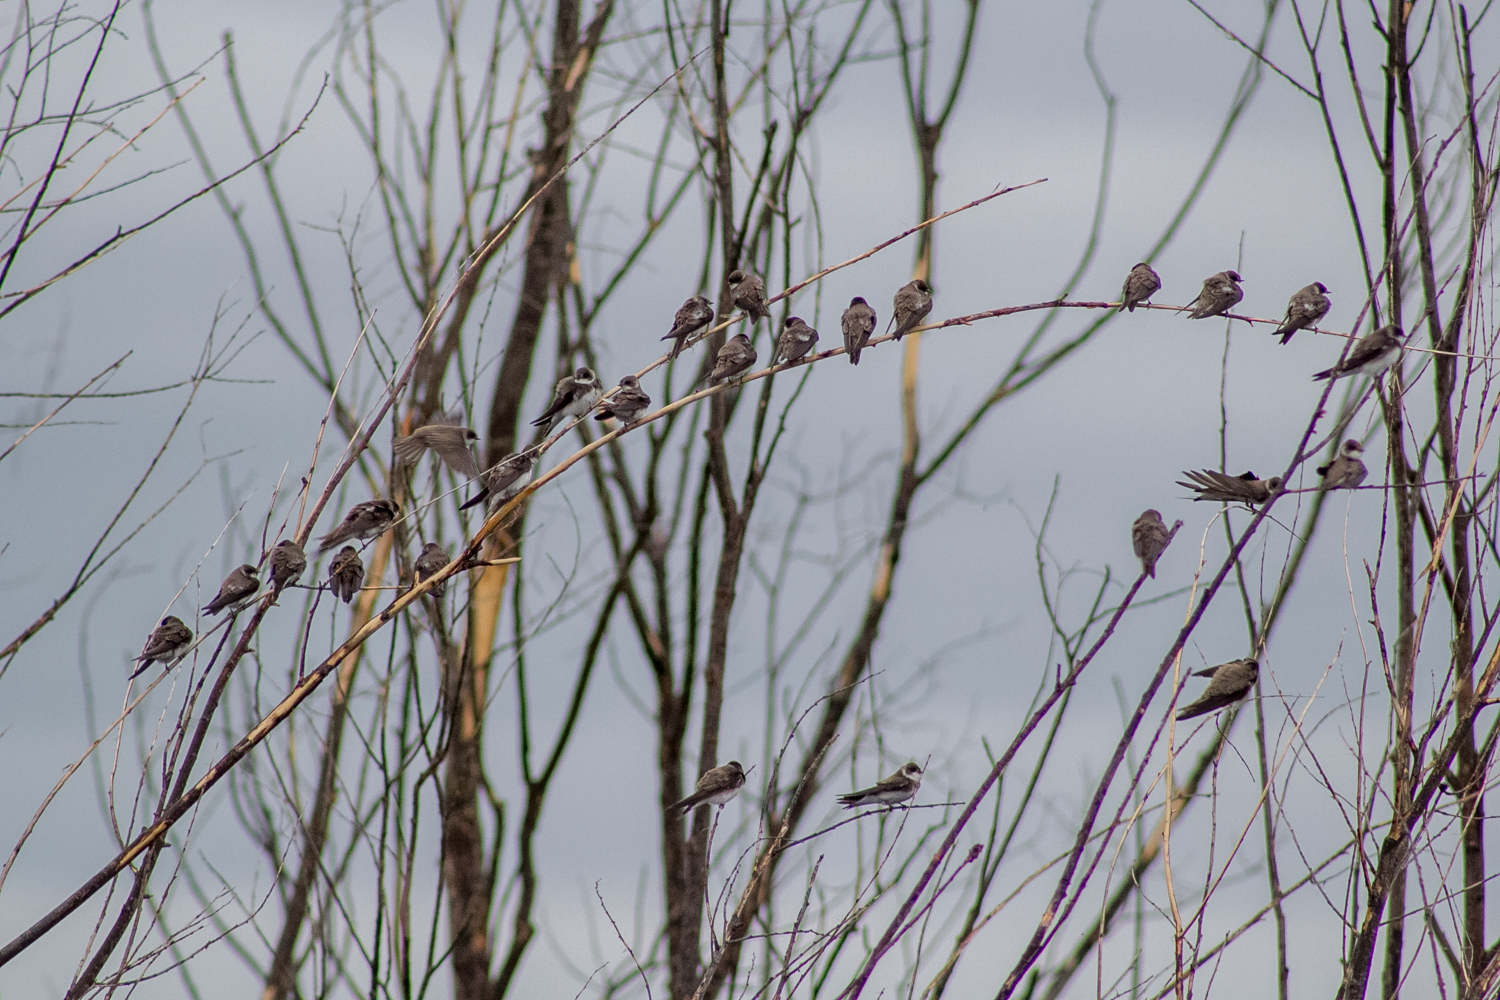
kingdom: Animalia
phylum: Chordata
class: Aves
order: Passeriformes
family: Hirundinidae
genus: Riparia
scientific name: Riparia riparia
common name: Sand martin
